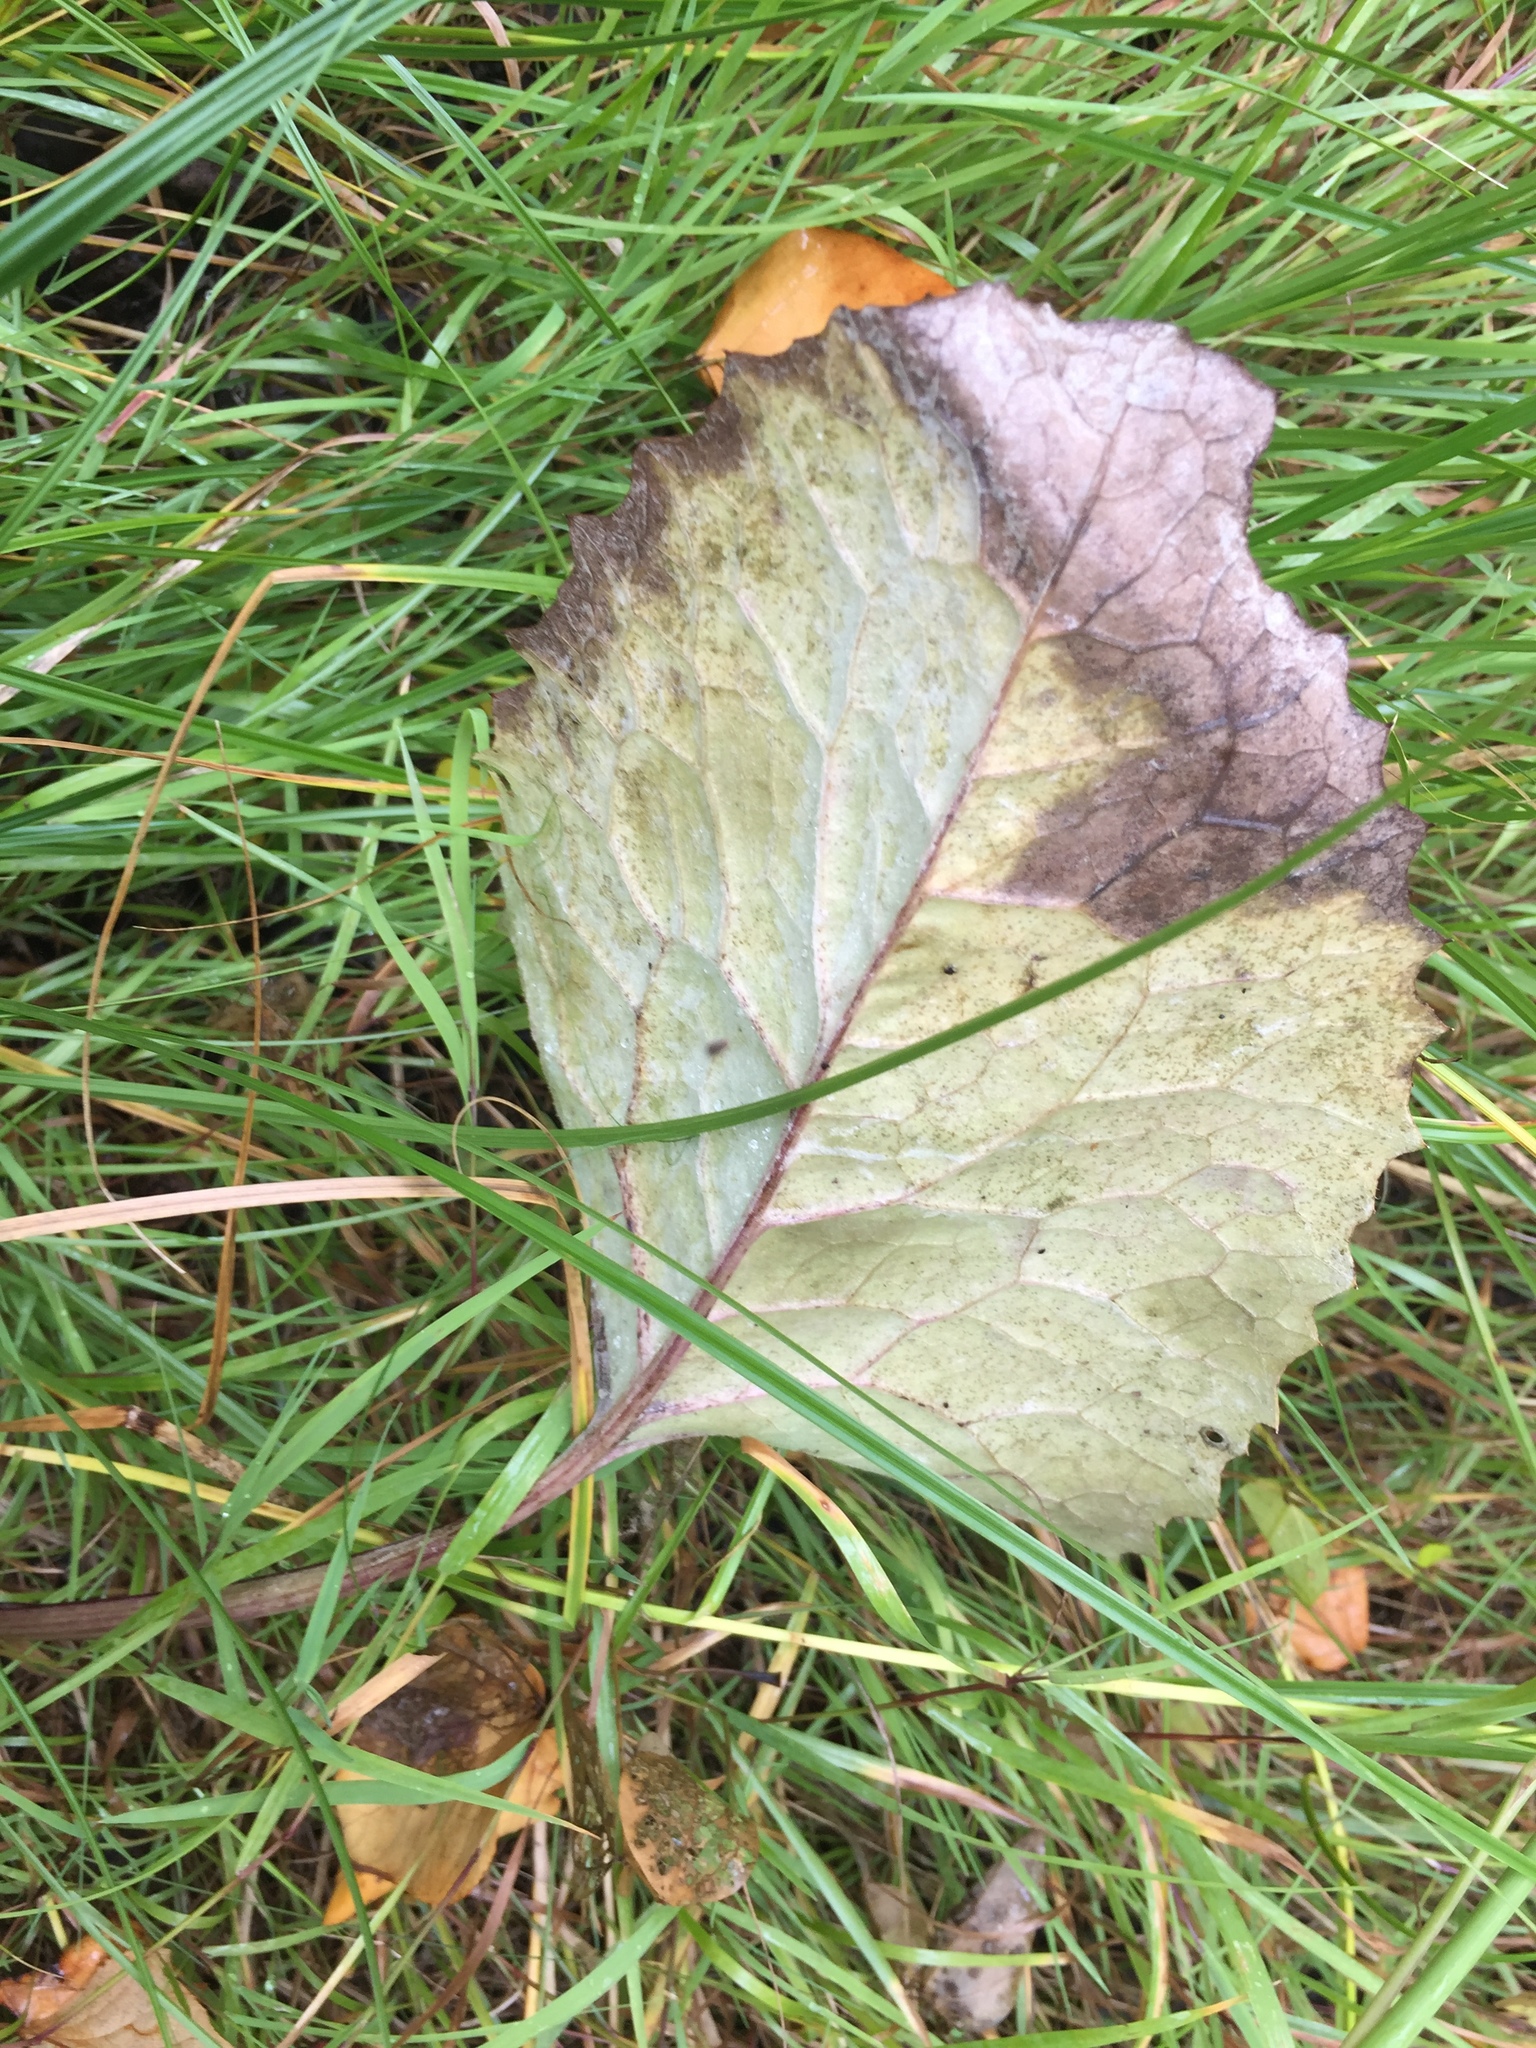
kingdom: Plantae
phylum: Tracheophyta
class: Magnoliopsida
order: Asterales
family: Asteraceae
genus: Petasites
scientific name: Petasites frigidus
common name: Arctic butterbur
